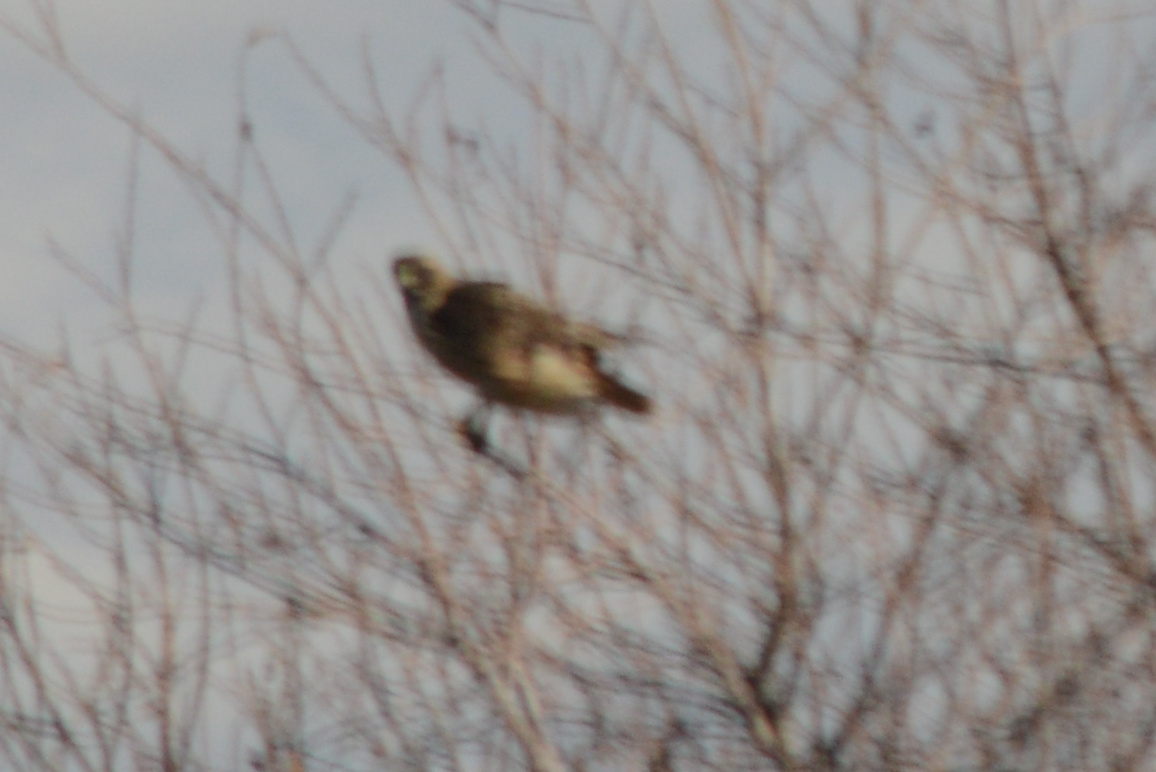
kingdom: Animalia
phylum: Chordata
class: Aves
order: Accipitriformes
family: Accipitridae
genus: Buteo
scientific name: Buteo jamaicensis
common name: Red-tailed hawk
